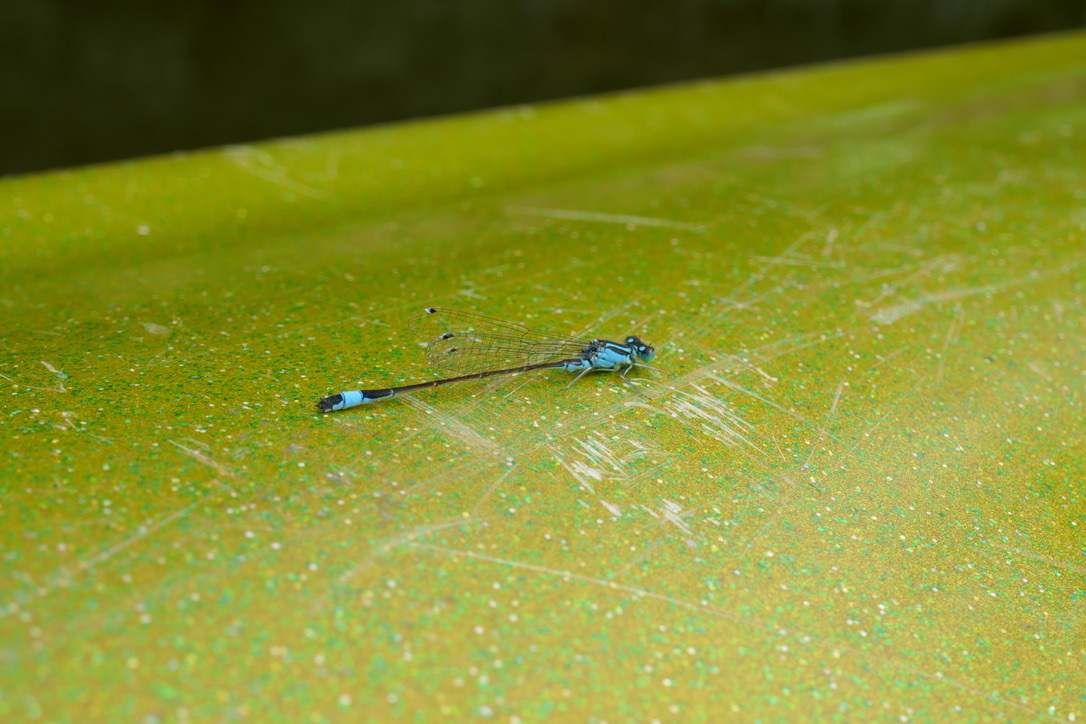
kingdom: Animalia
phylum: Arthropoda
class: Insecta
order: Odonata
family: Coenagrionidae
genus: Ischnura
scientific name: Ischnura elegans
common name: Blue-tailed damselfly
